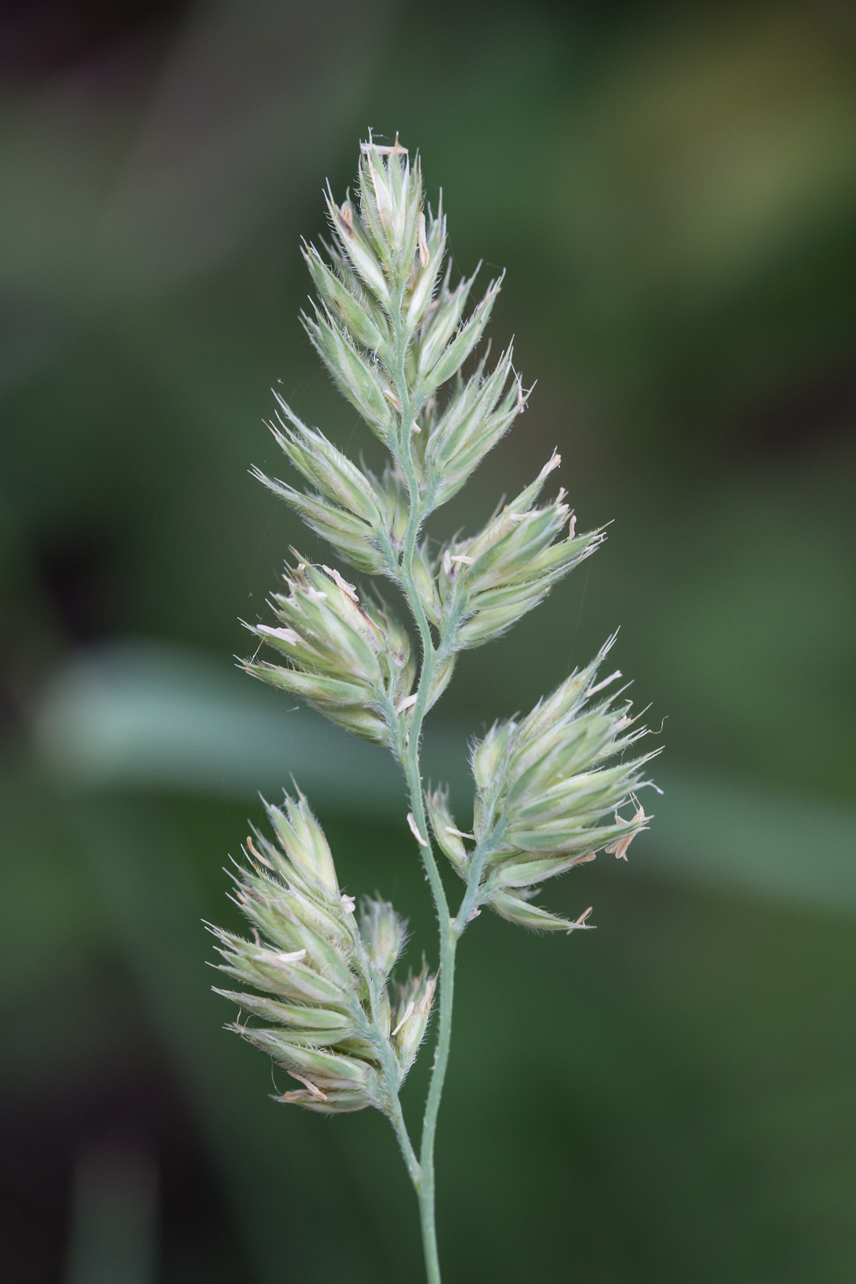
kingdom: Plantae
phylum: Tracheophyta
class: Liliopsida
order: Poales
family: Poaceae
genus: Dactylis
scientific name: Dactylis glomerata
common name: Orchardgrass
